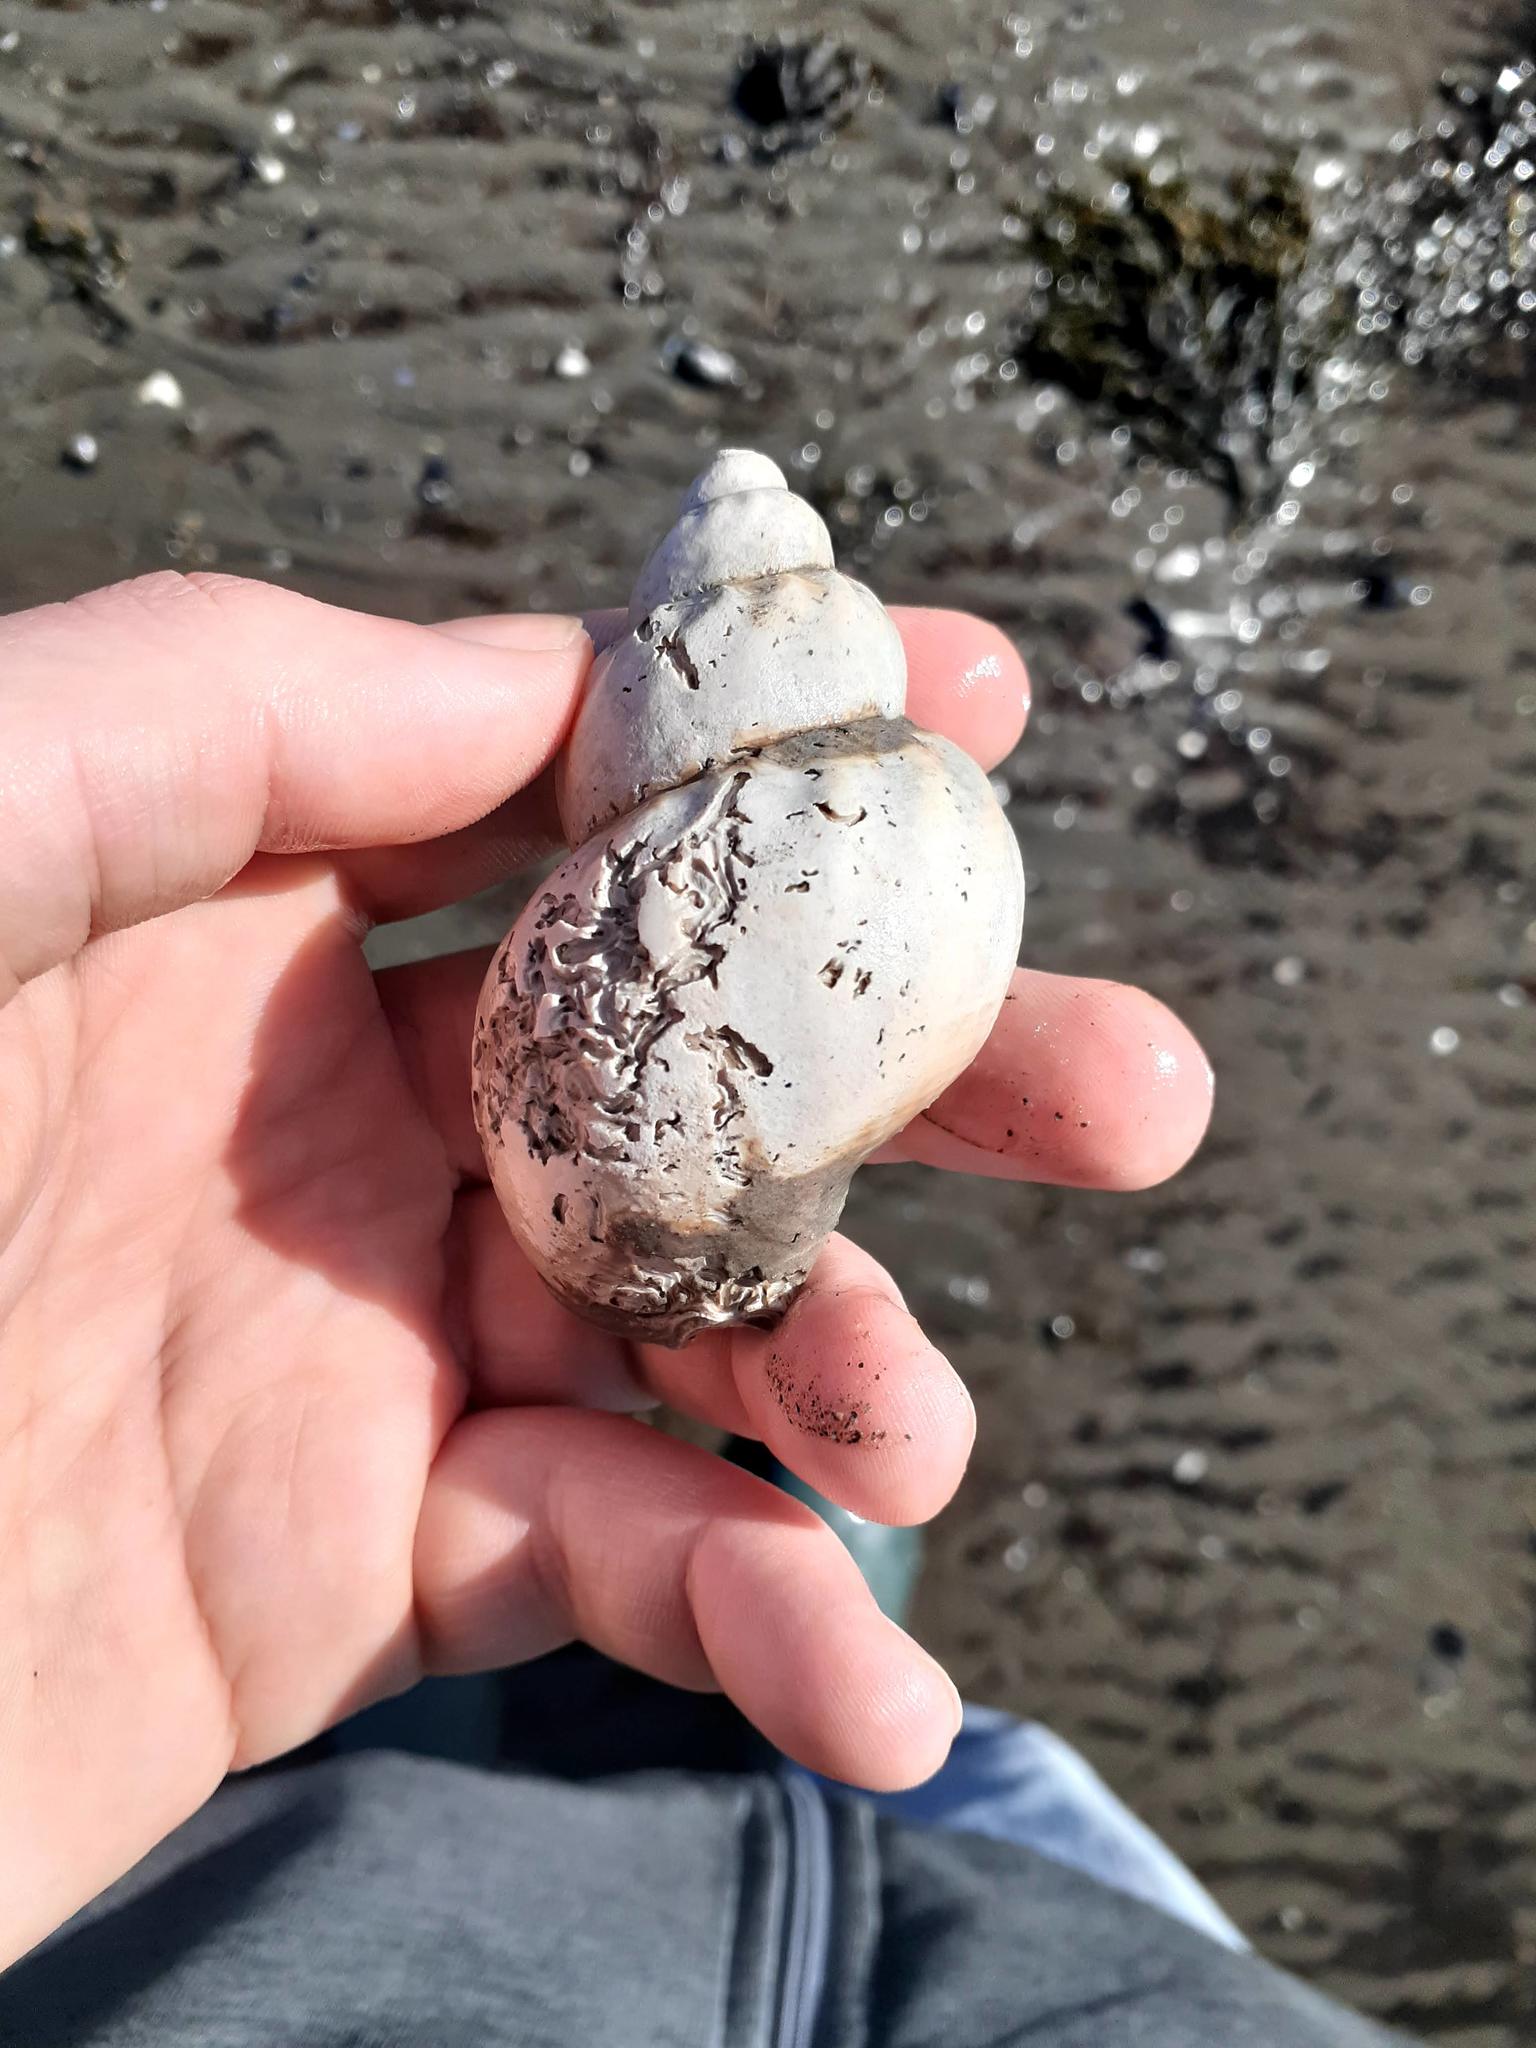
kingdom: Animalia
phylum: Mollusca
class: Gastropoda
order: Neogastropoda
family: Buccinidae
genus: Buccinum
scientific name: Buccinum undatum
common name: Common whelk
